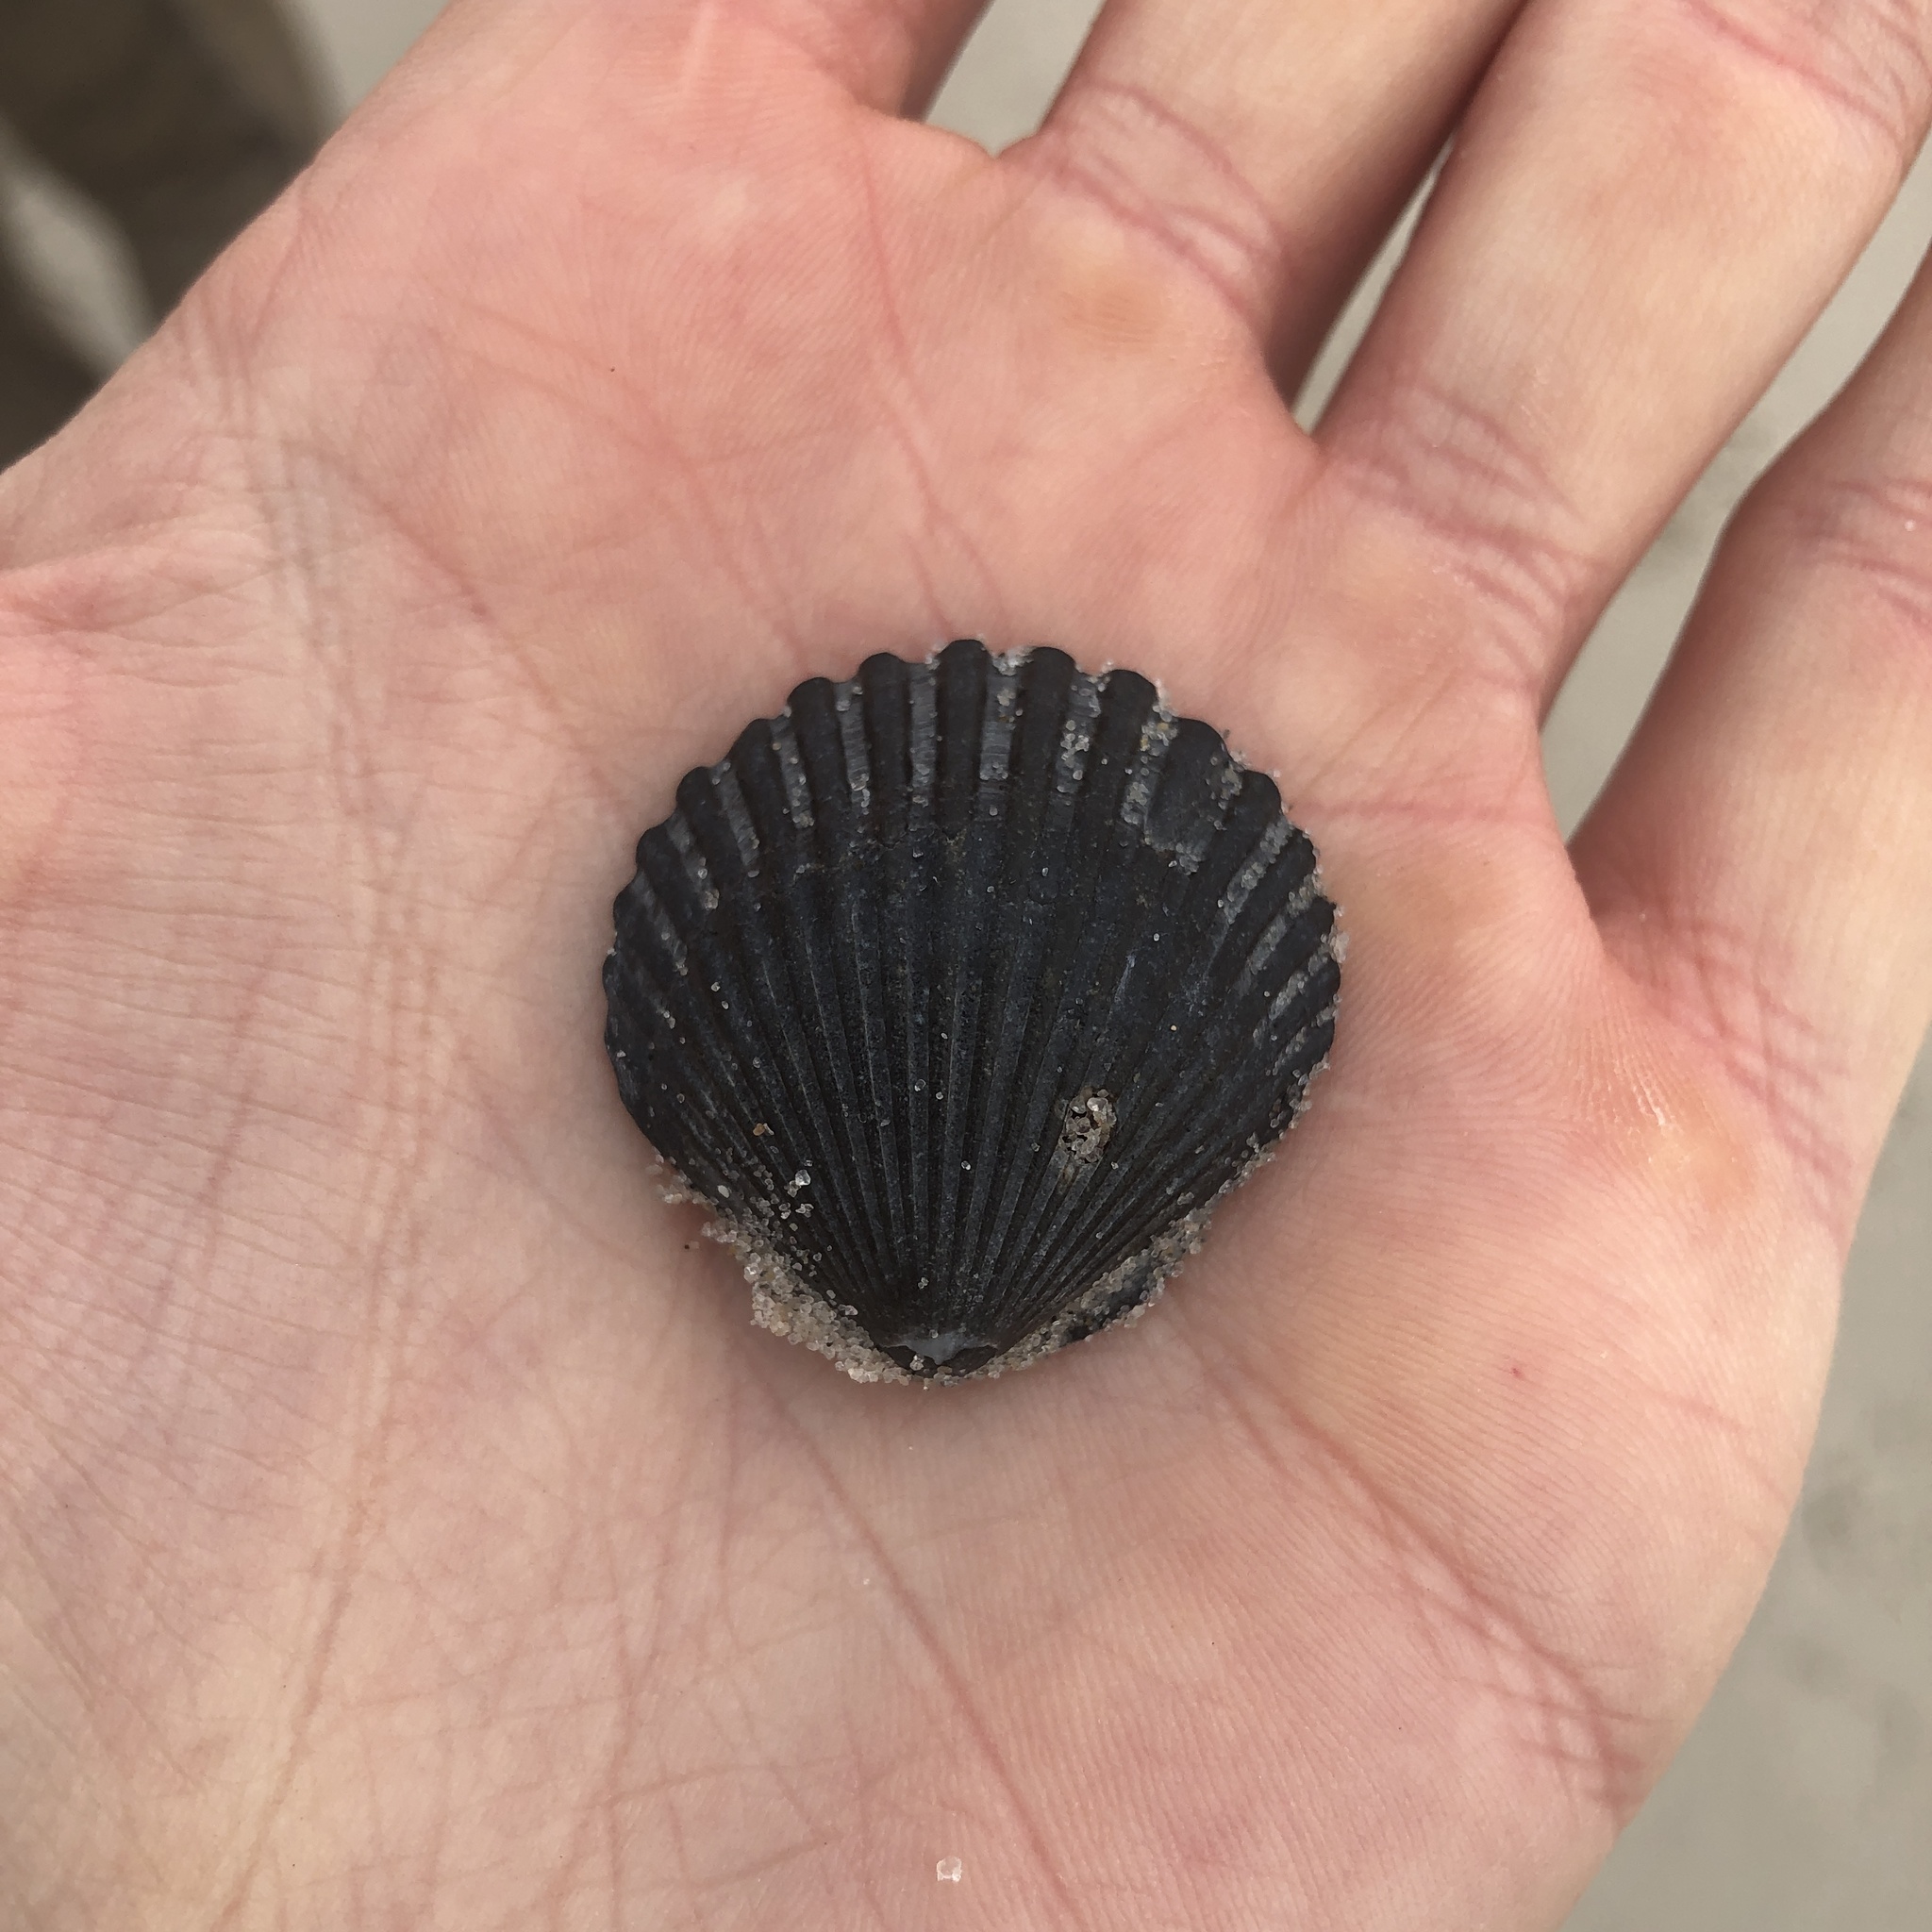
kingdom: Animalia
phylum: Mollusca
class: Bivalvia
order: Pectinida
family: Pectinidae
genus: Argopecten
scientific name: Argopecten irradians
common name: Atlantic bay scallop
